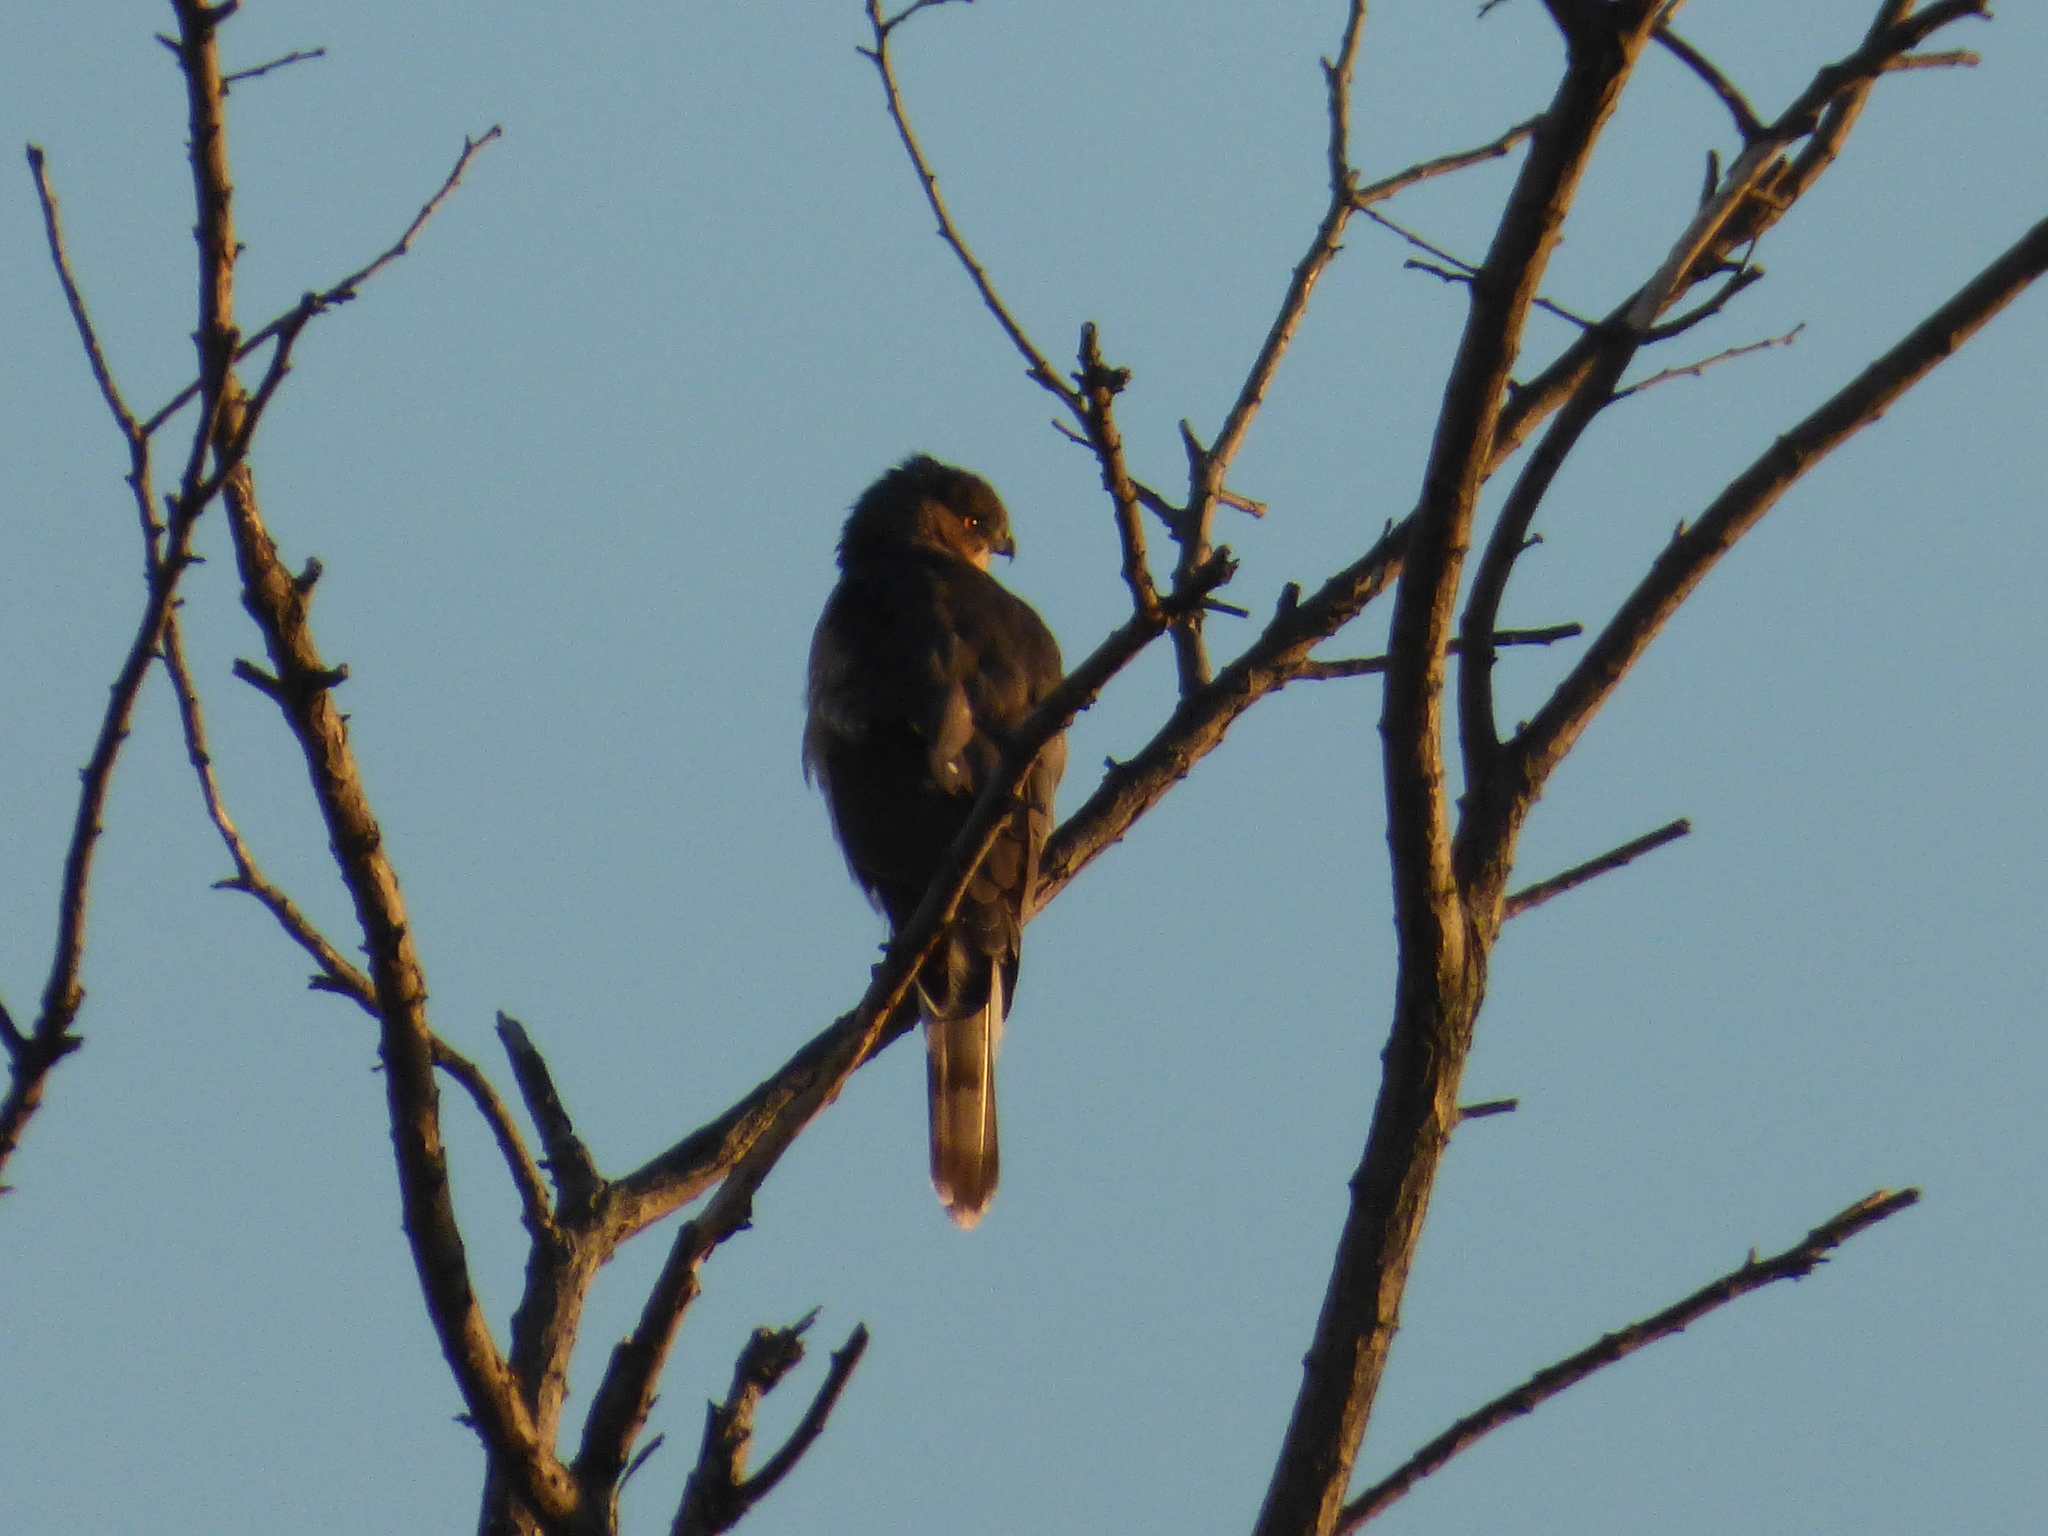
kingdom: Animalia
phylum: Chordata
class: Aves
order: Accipitriformes
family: Accipitridae
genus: Accipiter
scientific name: Accipiter cooperii
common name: Cooper's hawk
